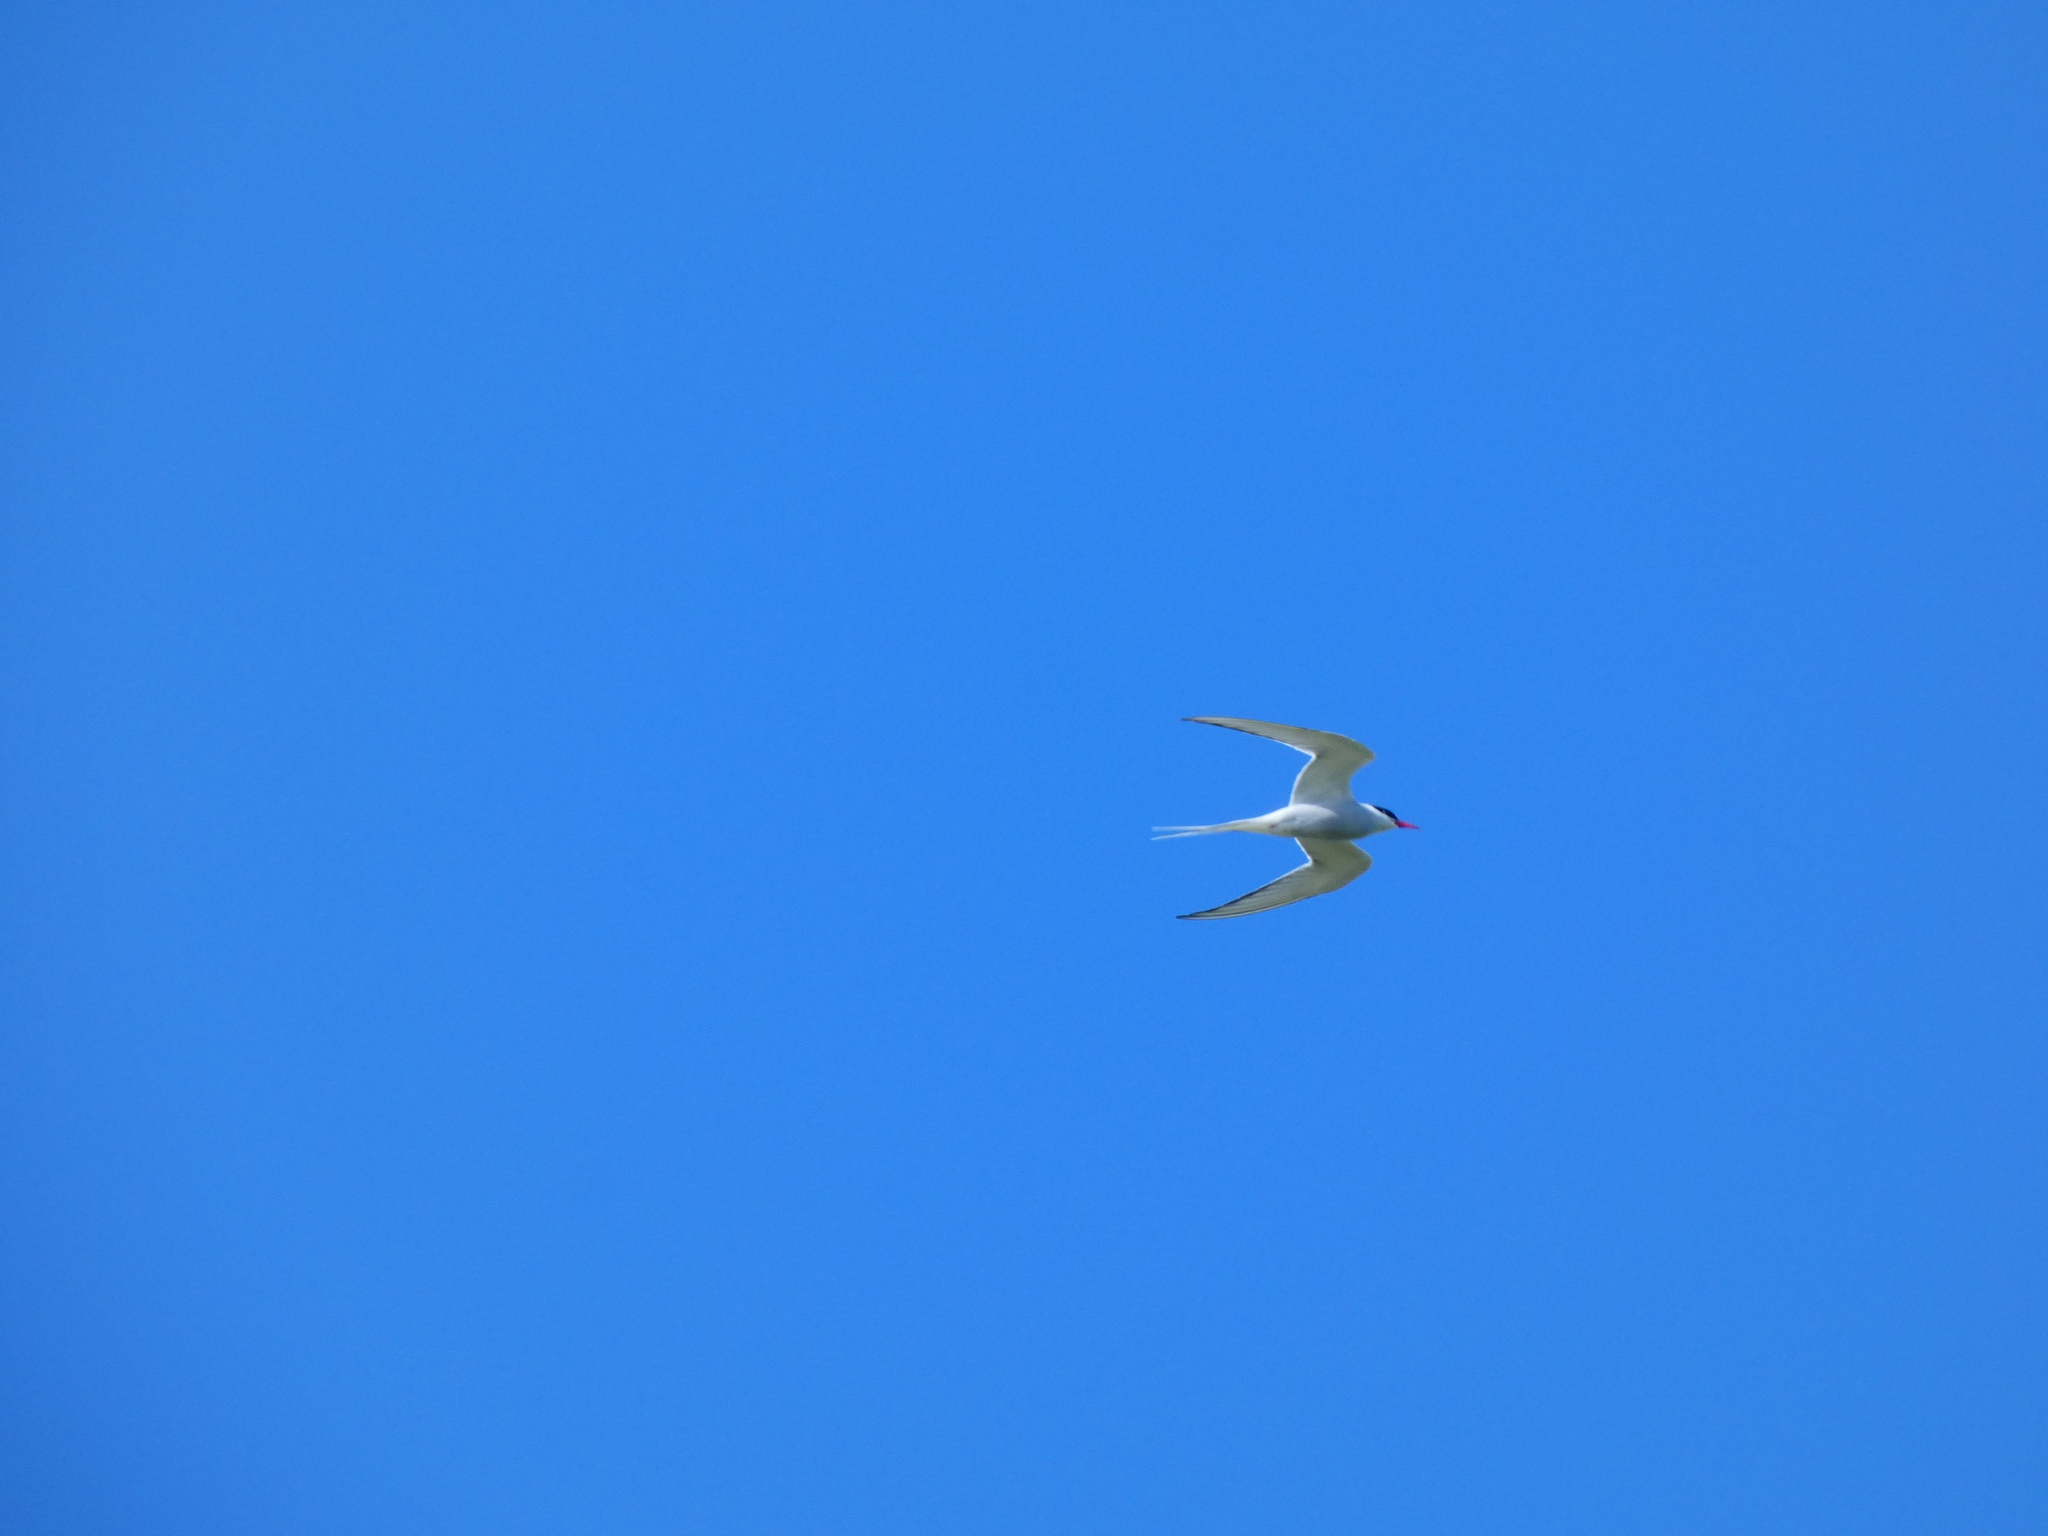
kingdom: Animalia
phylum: Chordata
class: Aves
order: Charadriiformes
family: Laridae
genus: Sterna
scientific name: Sterna hirundo
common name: Common tern
